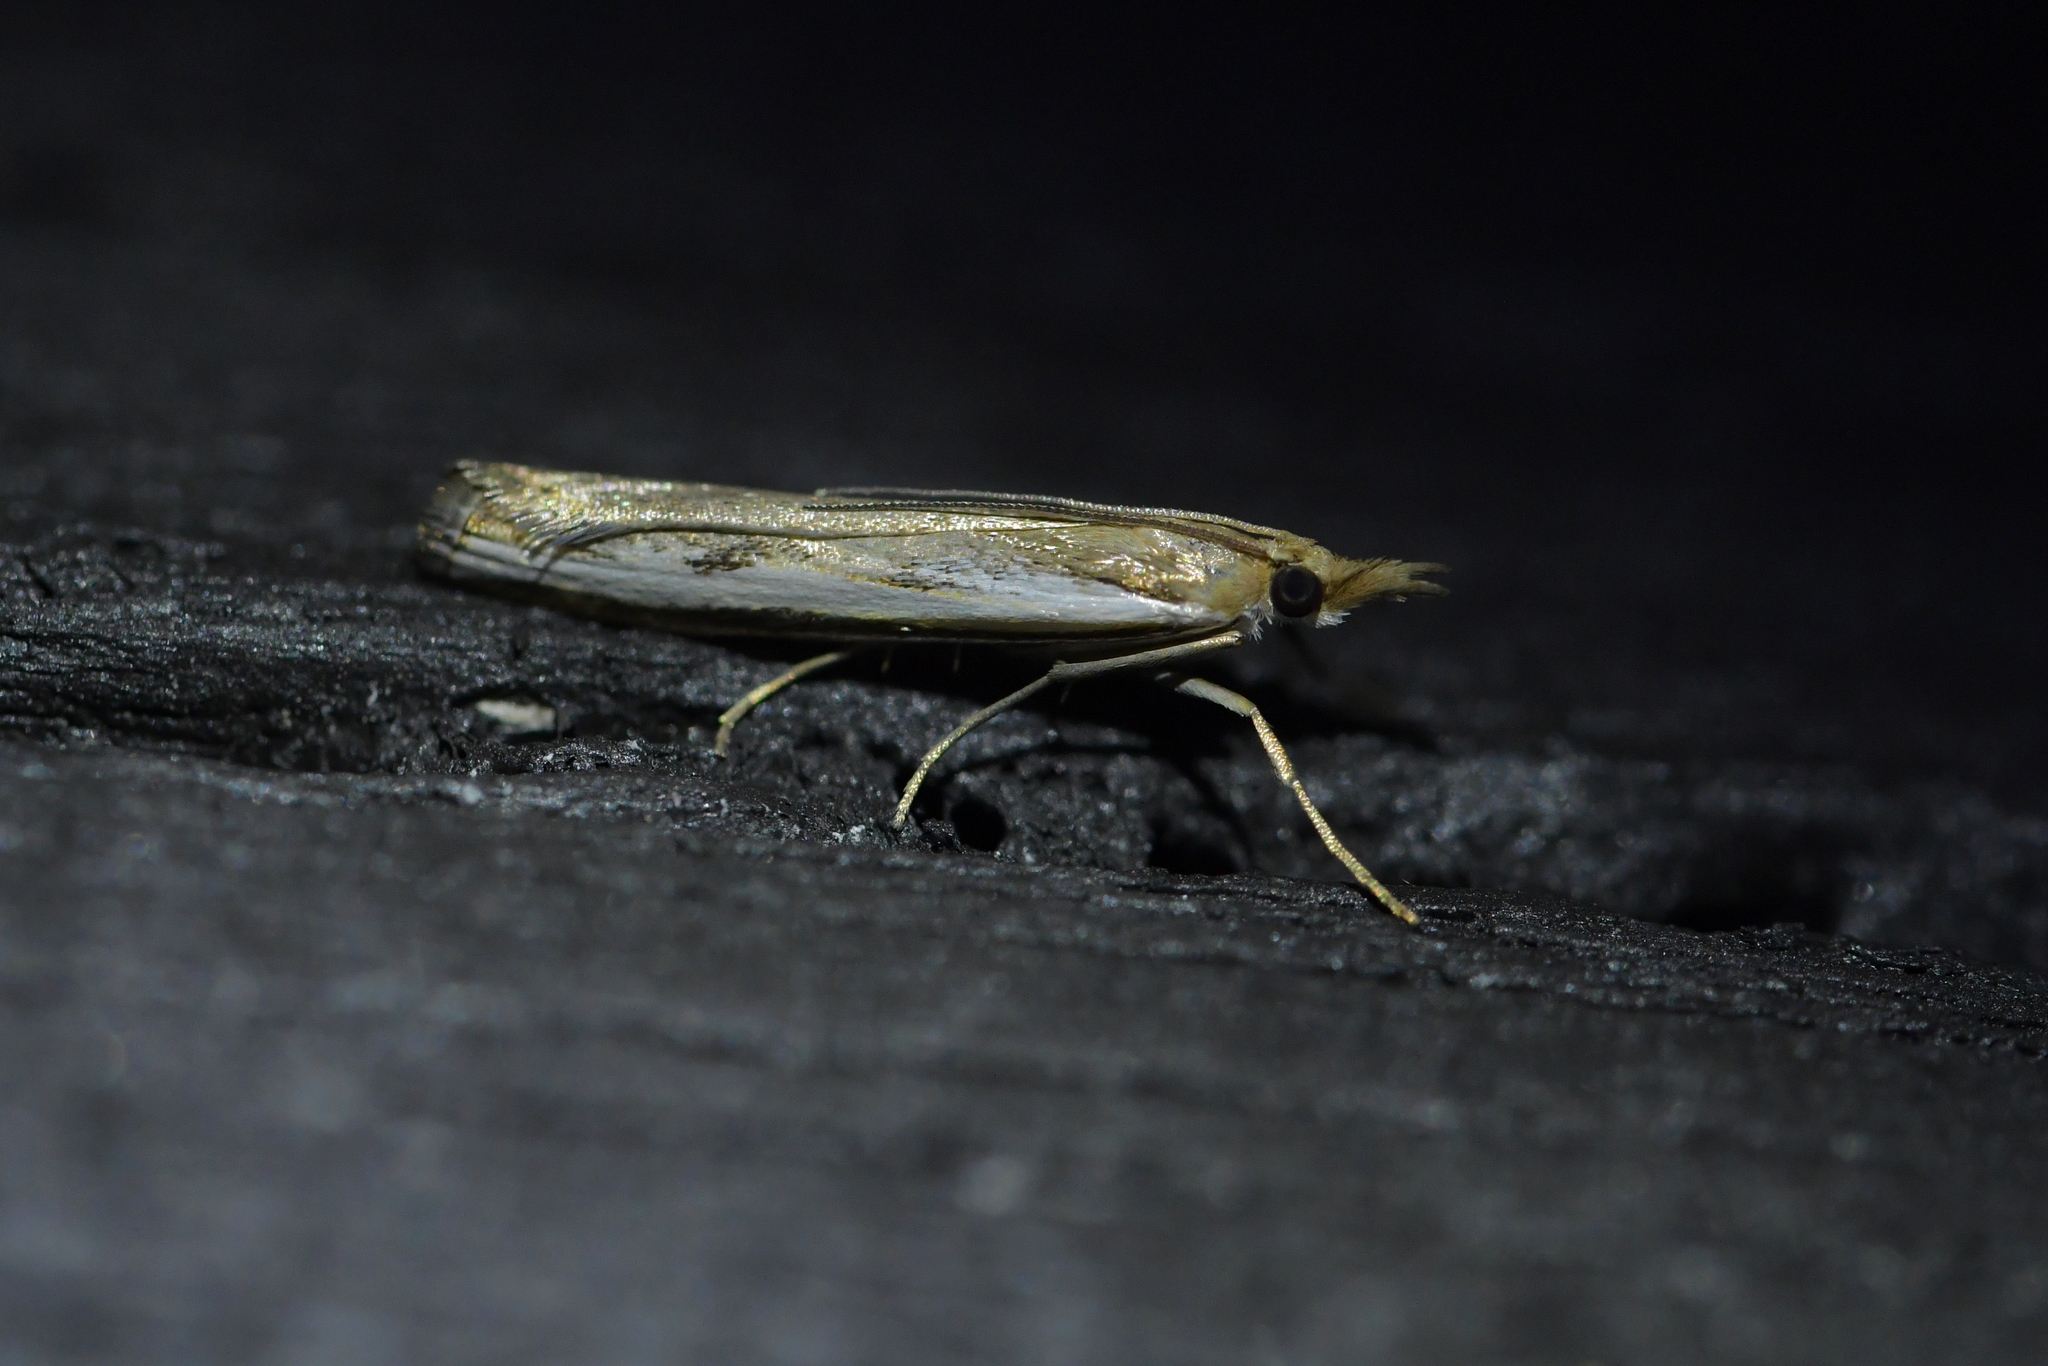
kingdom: Animalia
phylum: Arthropoda
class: Insecta
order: Lepidoptera
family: Crambidae
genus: Orocrambus
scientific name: Orocrambus flexuosellus
